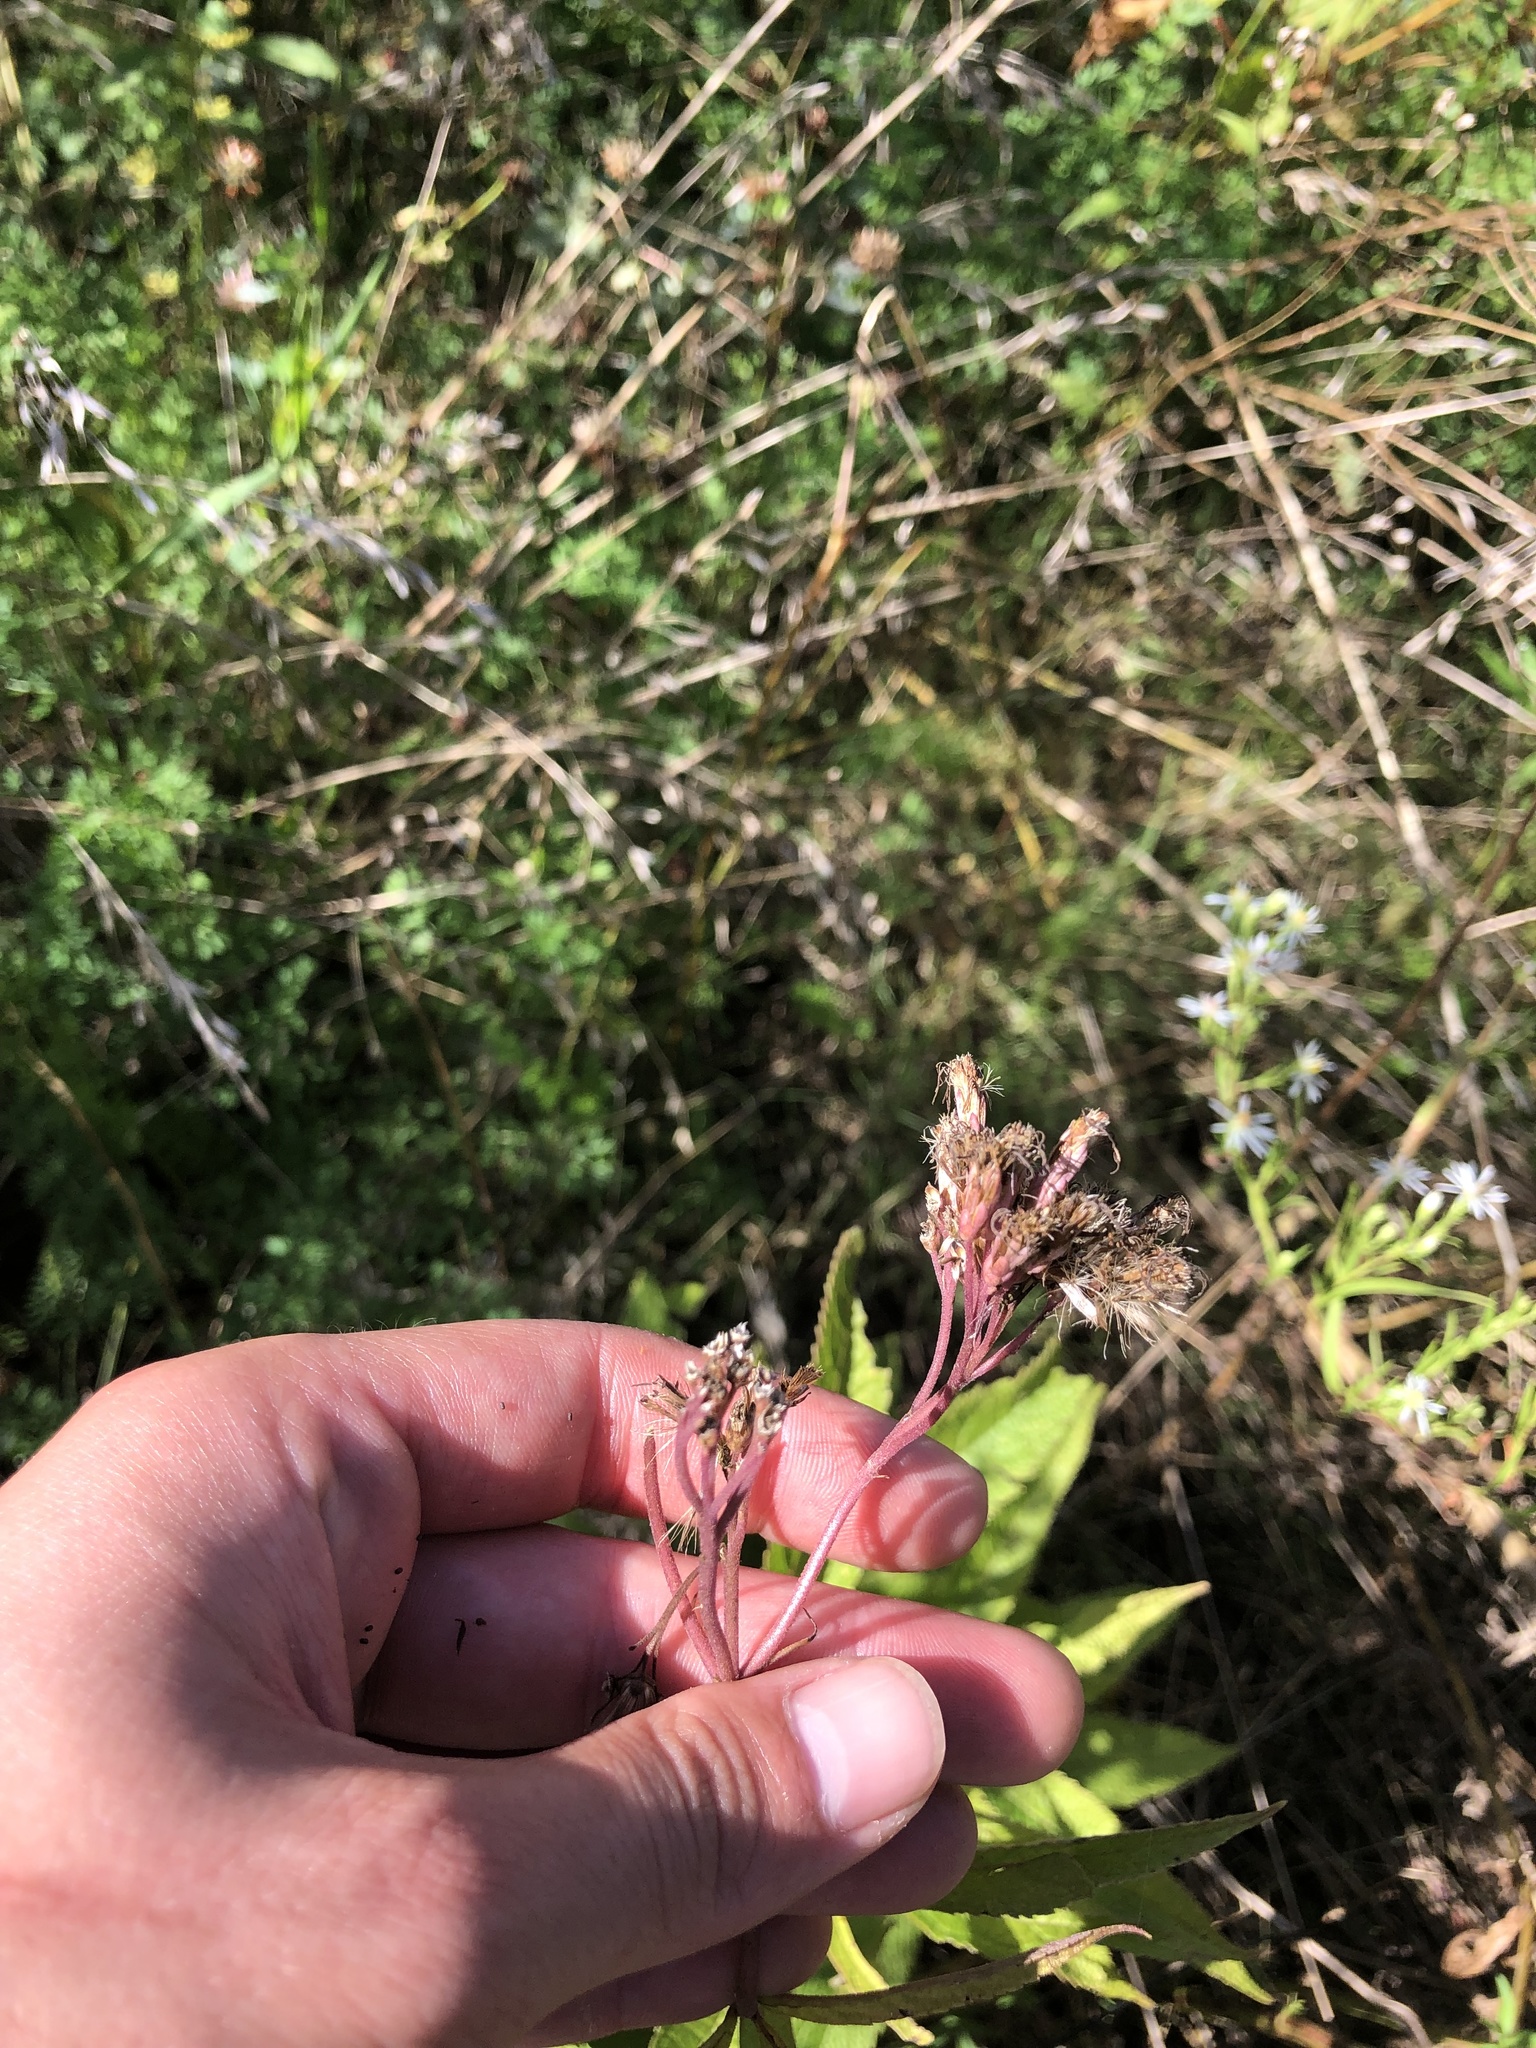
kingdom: Plantae
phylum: Tracheophyta
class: Magnoliopsida
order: Asterales
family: Asteraceae
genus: Eutrochium
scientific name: Eutrochium maculatum
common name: Spotted joe pye weed
